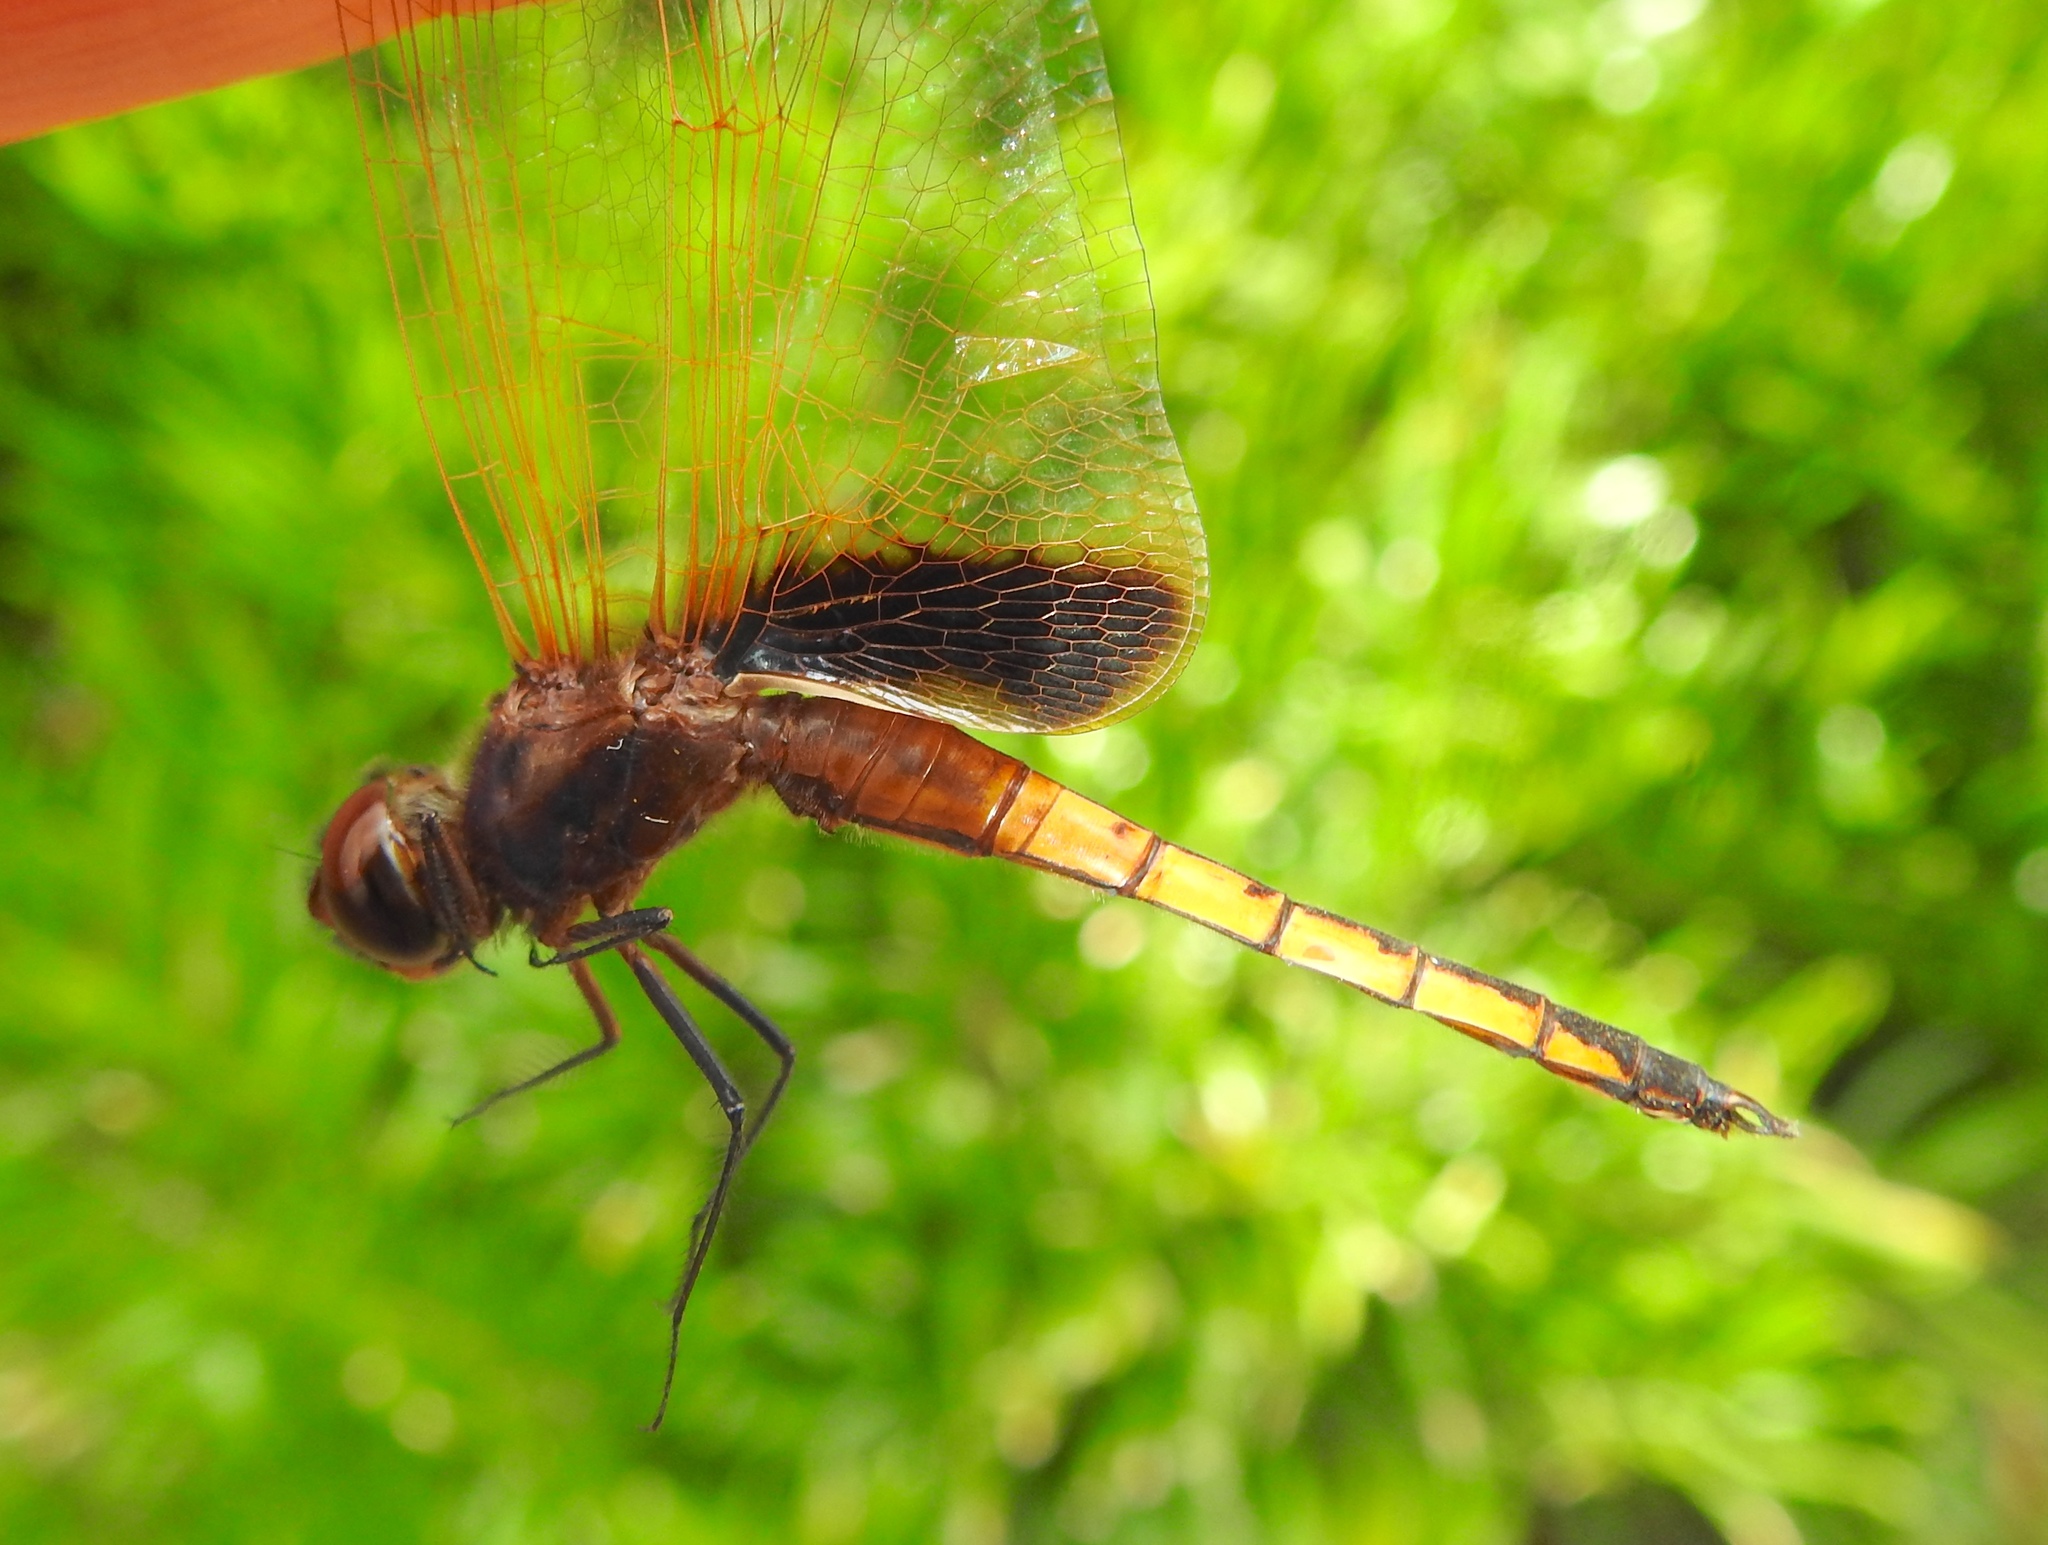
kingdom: Animalia
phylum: Arthropoda
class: Insecta
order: Odonata
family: Libellulidae
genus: Miathyria
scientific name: Miathyria marcella
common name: Hyacinth glider
